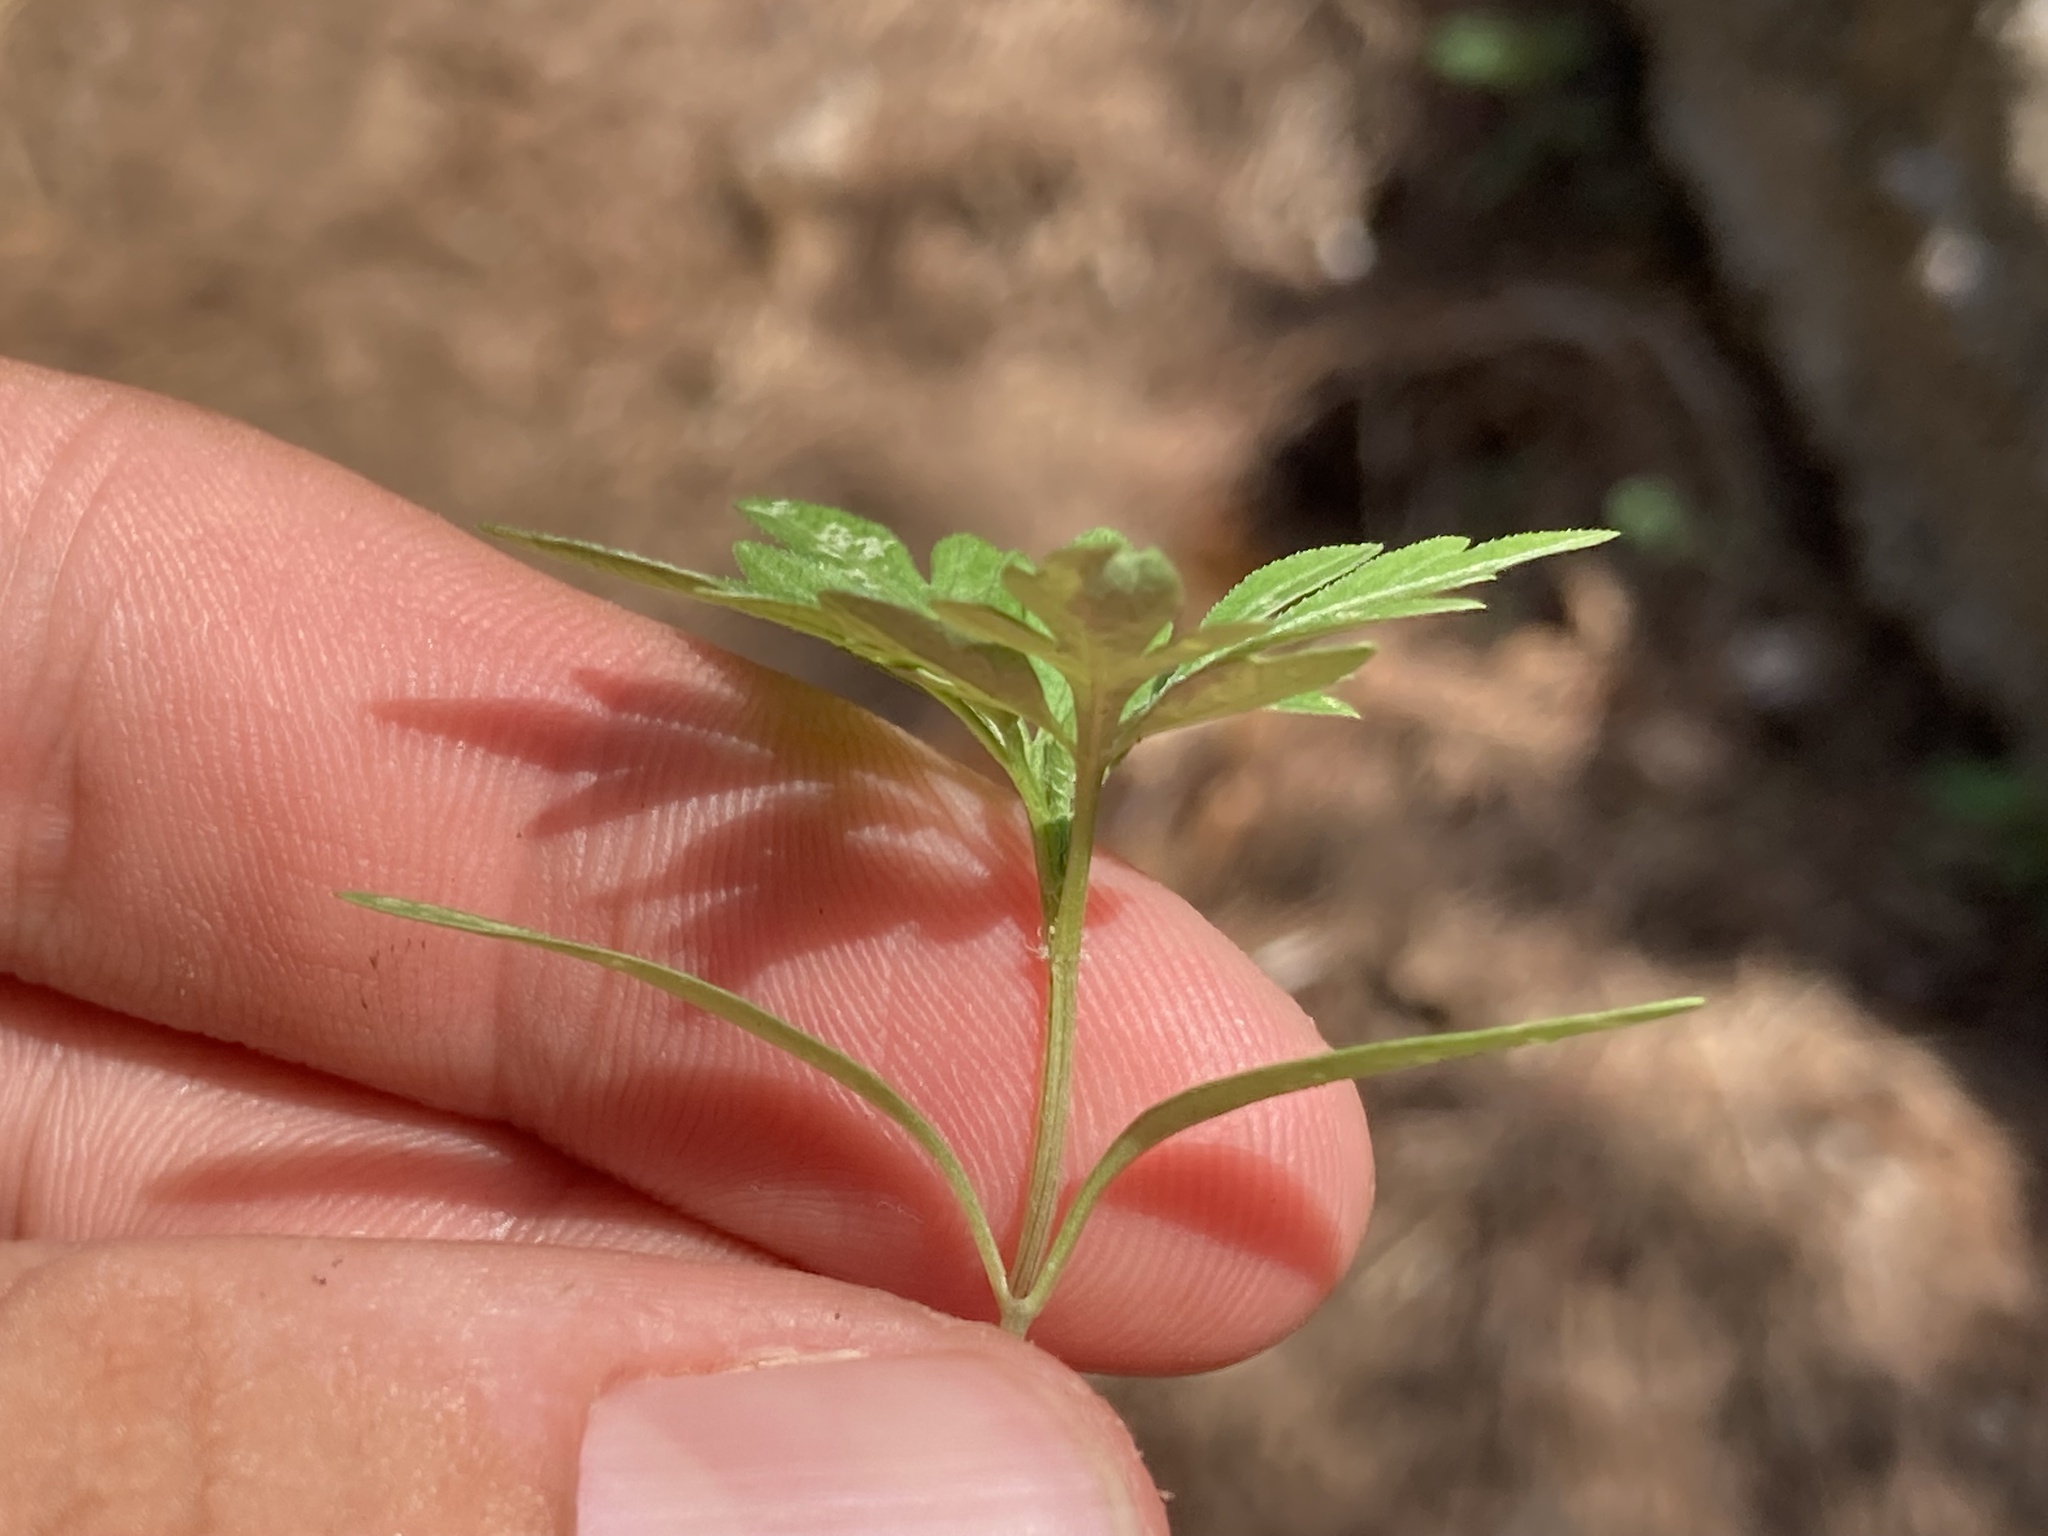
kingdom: Plantae
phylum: Tracheophyta
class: Magnoliopsida
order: Asterales
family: Asteraceae
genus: Bidens
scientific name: Bidens subalternans
